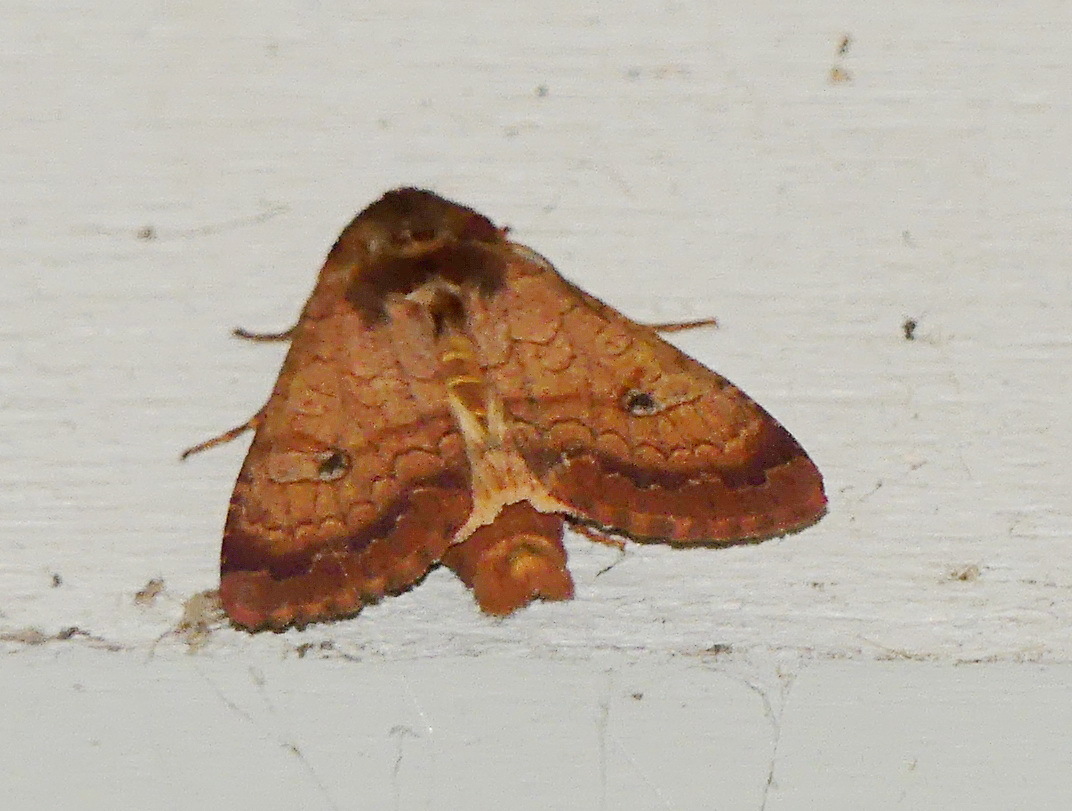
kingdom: Animalia
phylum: Arthropoda
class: Insecta
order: Lepidoptera
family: Noctuidae
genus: Sideridis
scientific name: Sideridis rosea
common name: Rosewing moth
